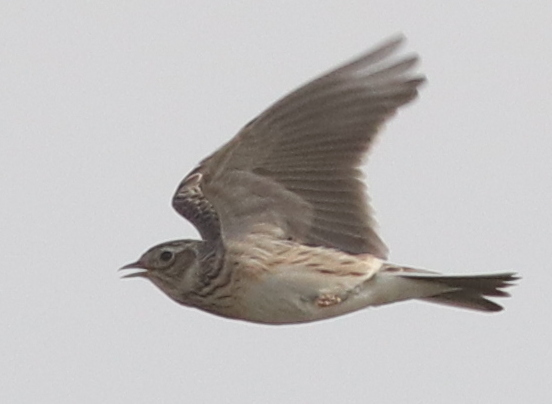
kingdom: Animalia
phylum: Chordata
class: Aves
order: Passeriformes
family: Alaudidae
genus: Alauda
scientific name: Alauda arvensis
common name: Eurasian skylark
